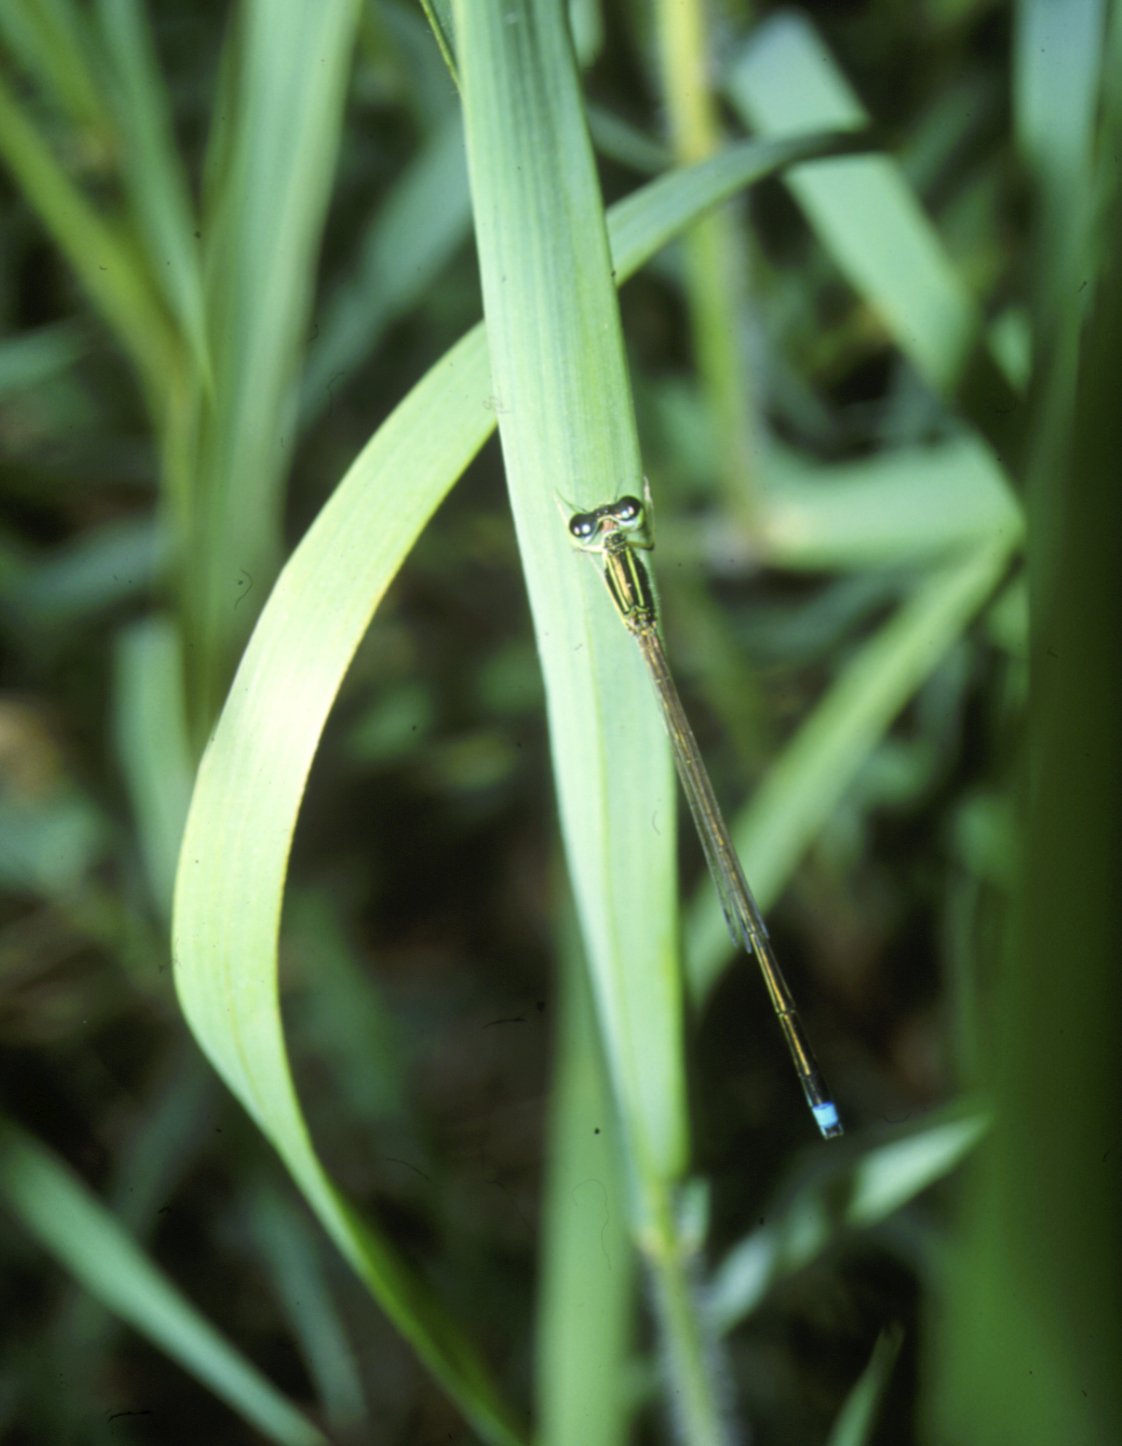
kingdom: Animalia
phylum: Arthropoda
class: Insecta
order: Odonata
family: Coenagrionidae
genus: Ischnura
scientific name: Ischnura asiatica
